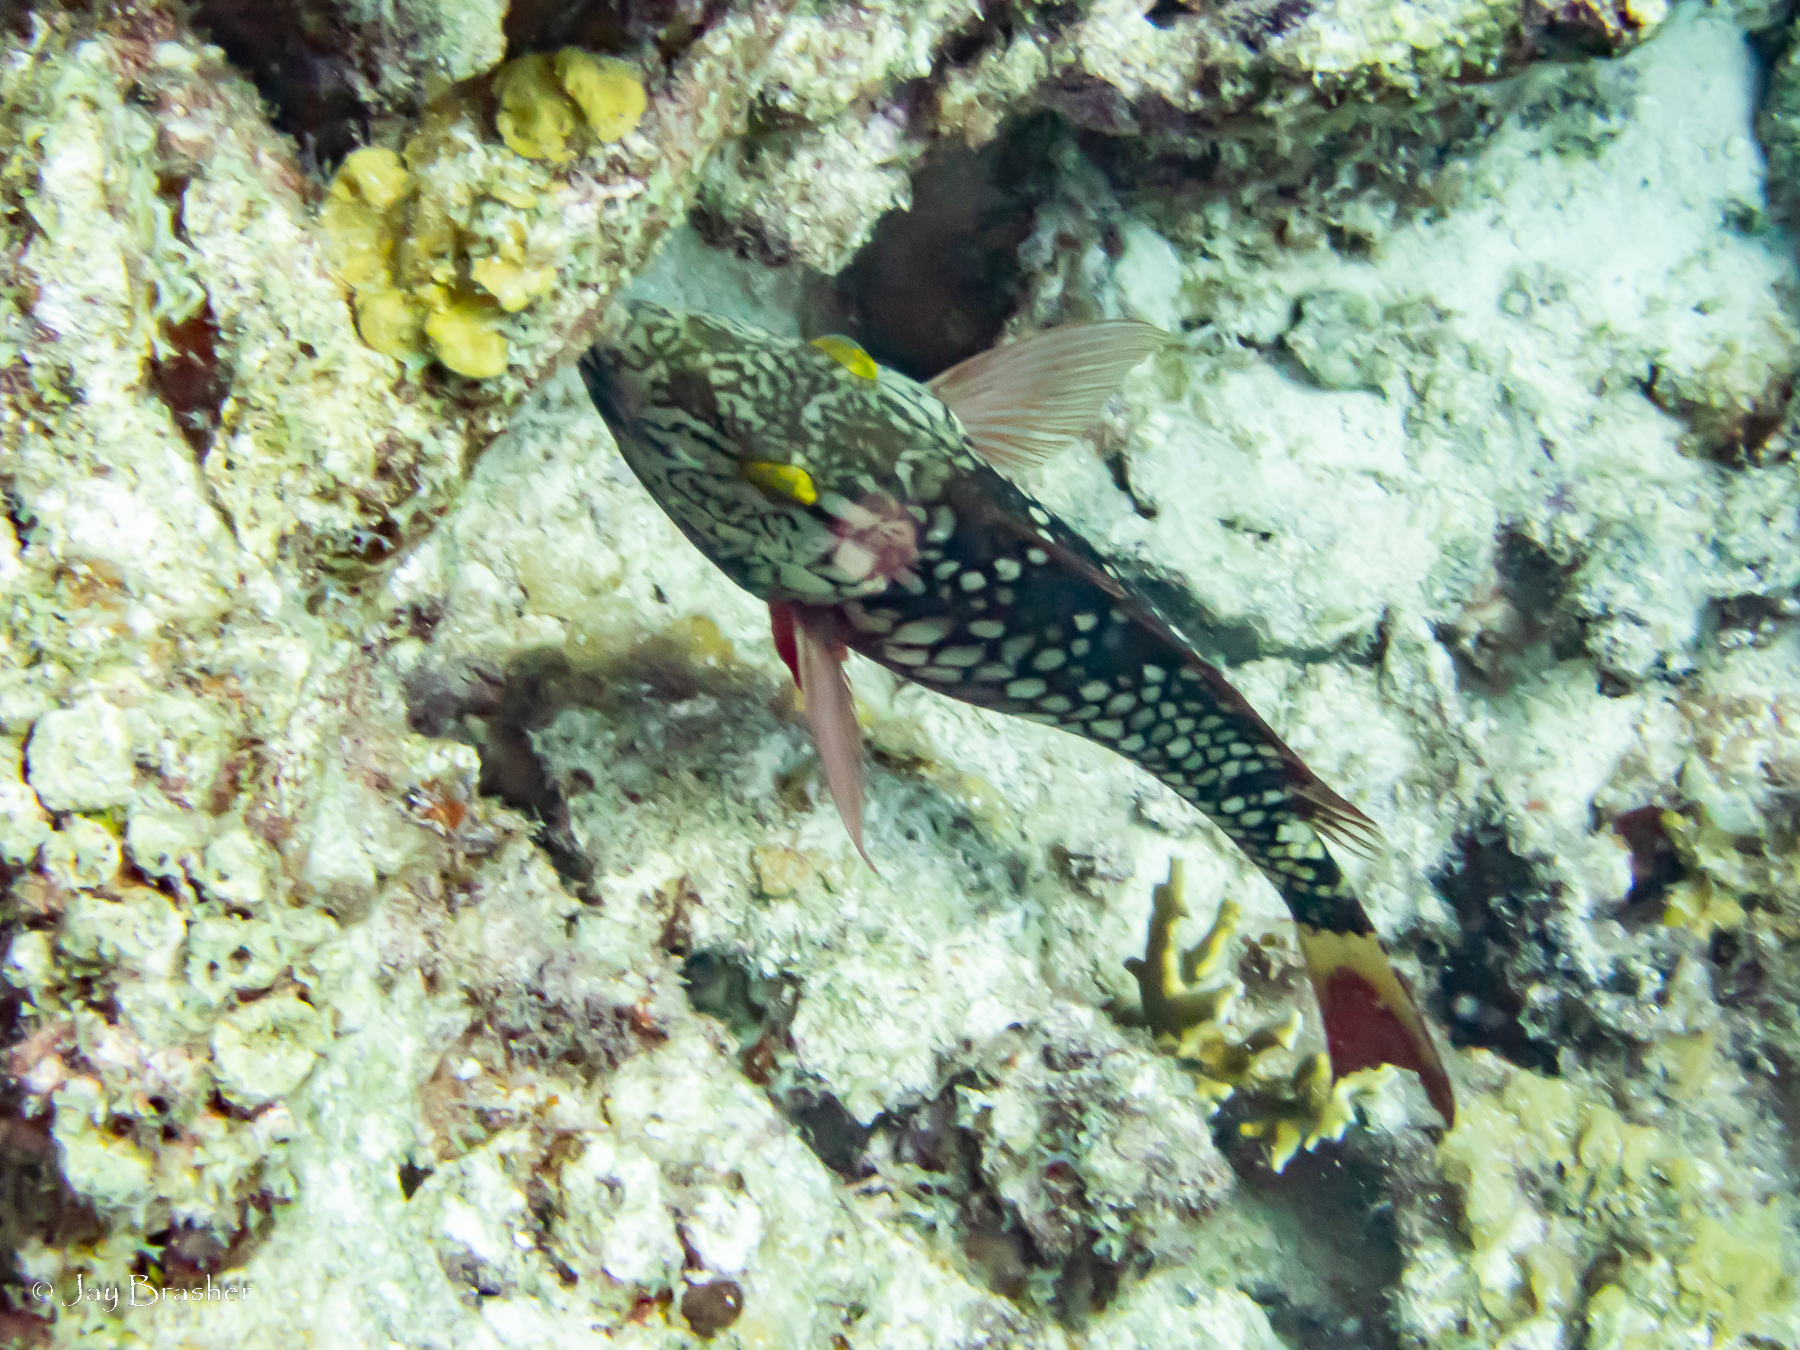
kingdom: Animalia
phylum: Chordata
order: Perciformes
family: Scaridae
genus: Sparisoma
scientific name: Sparisoma viride
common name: Stoplight parrotfish
